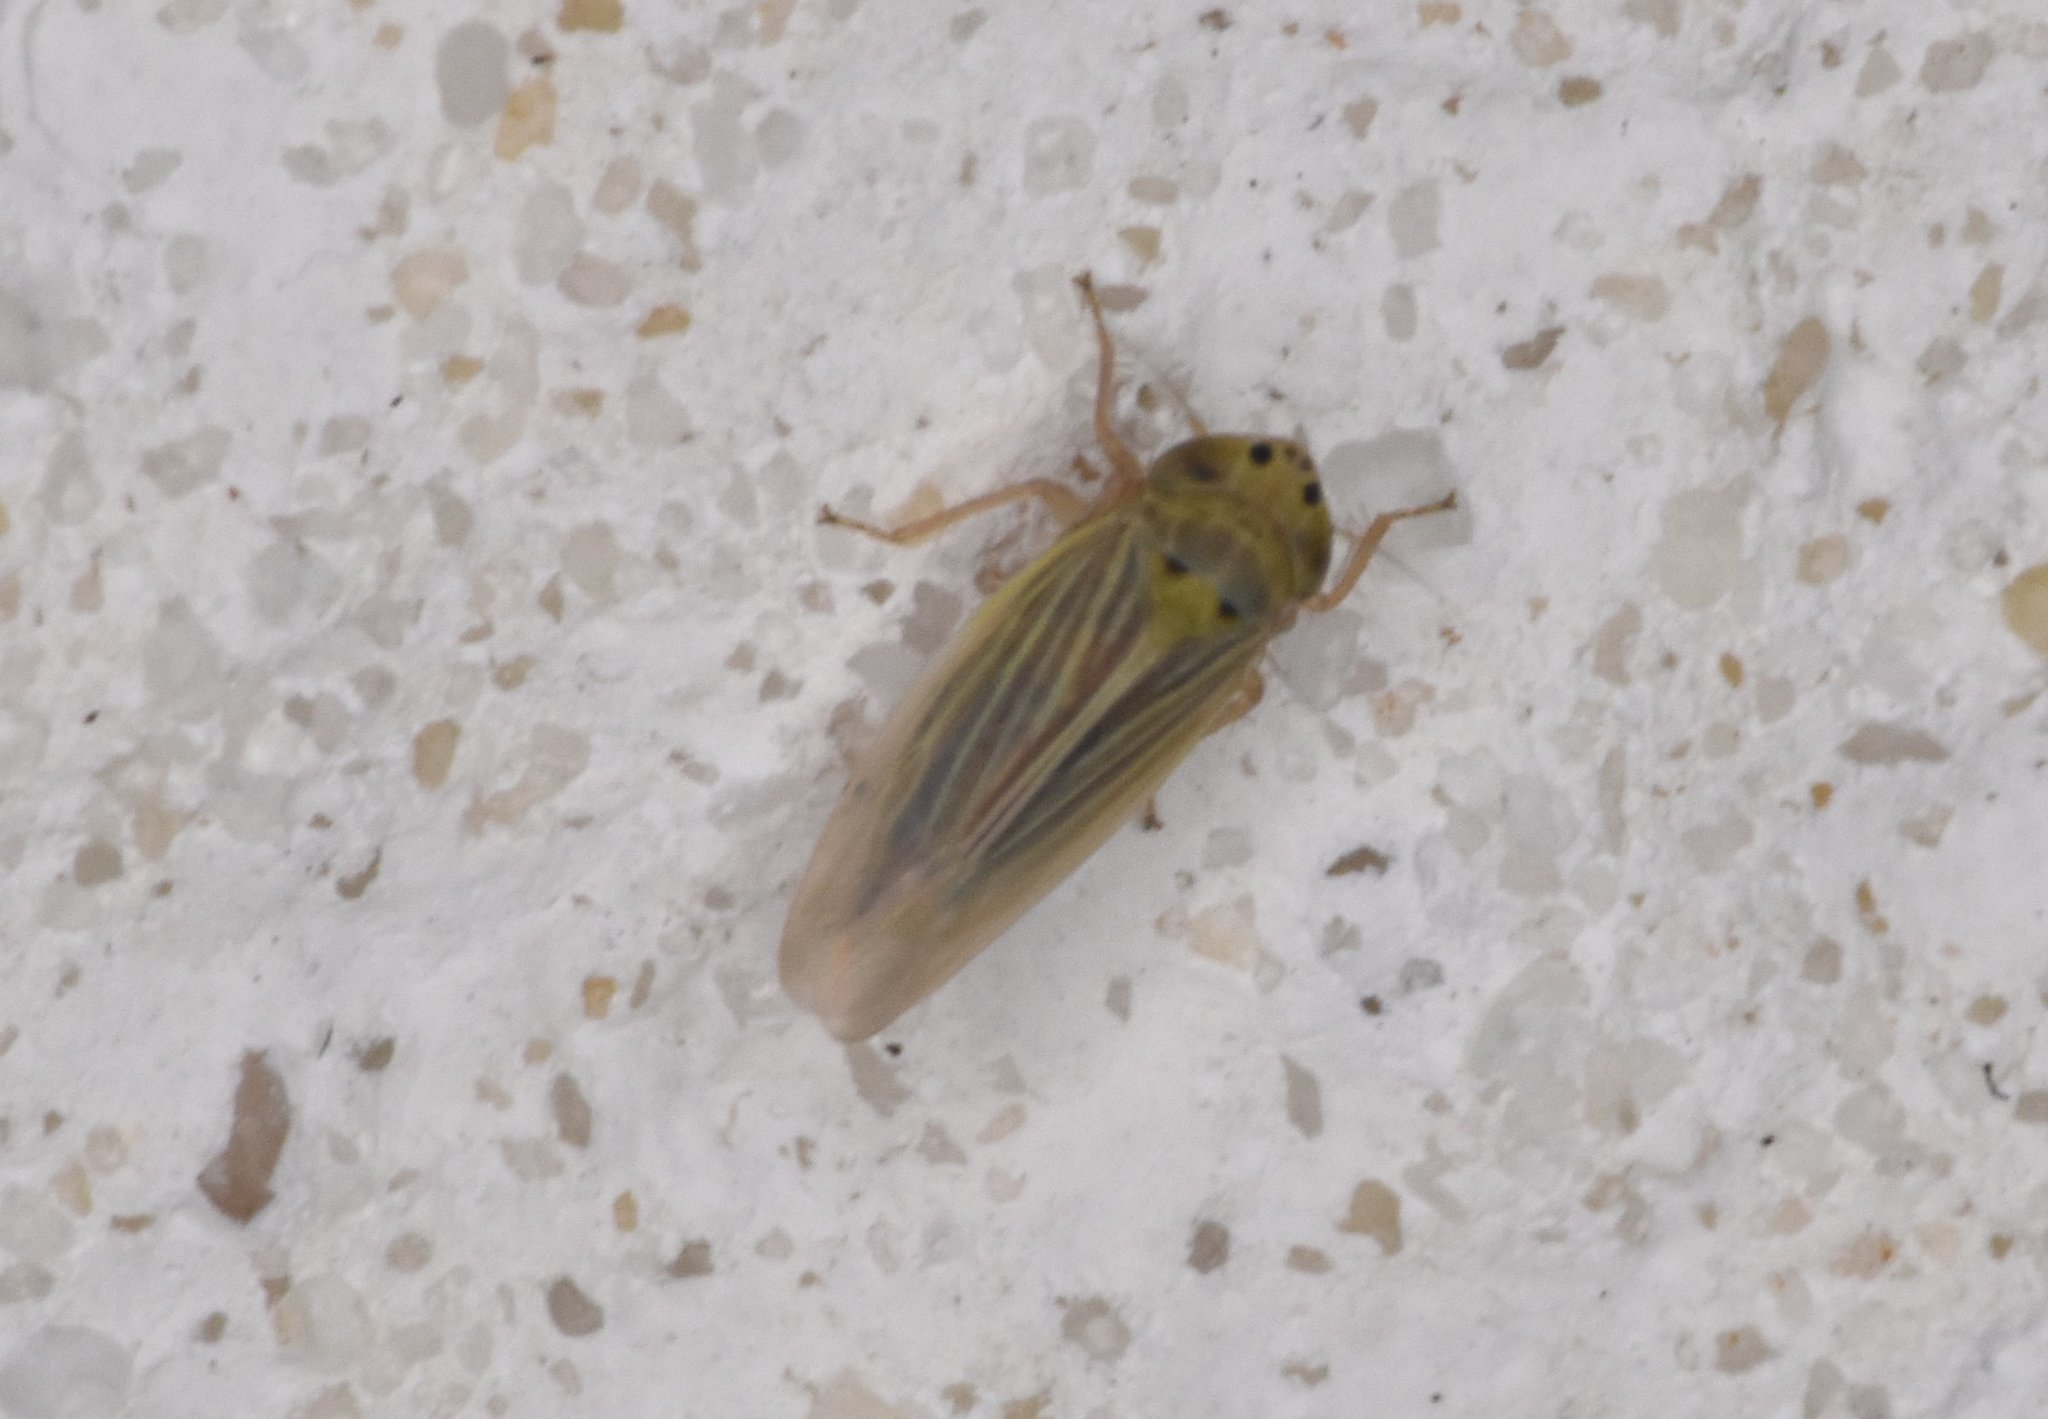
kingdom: Animalia
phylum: Arthropoda
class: Insecta
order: Hemiptera
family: Cicadellidae
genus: Graminella
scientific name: Graminella cognita
